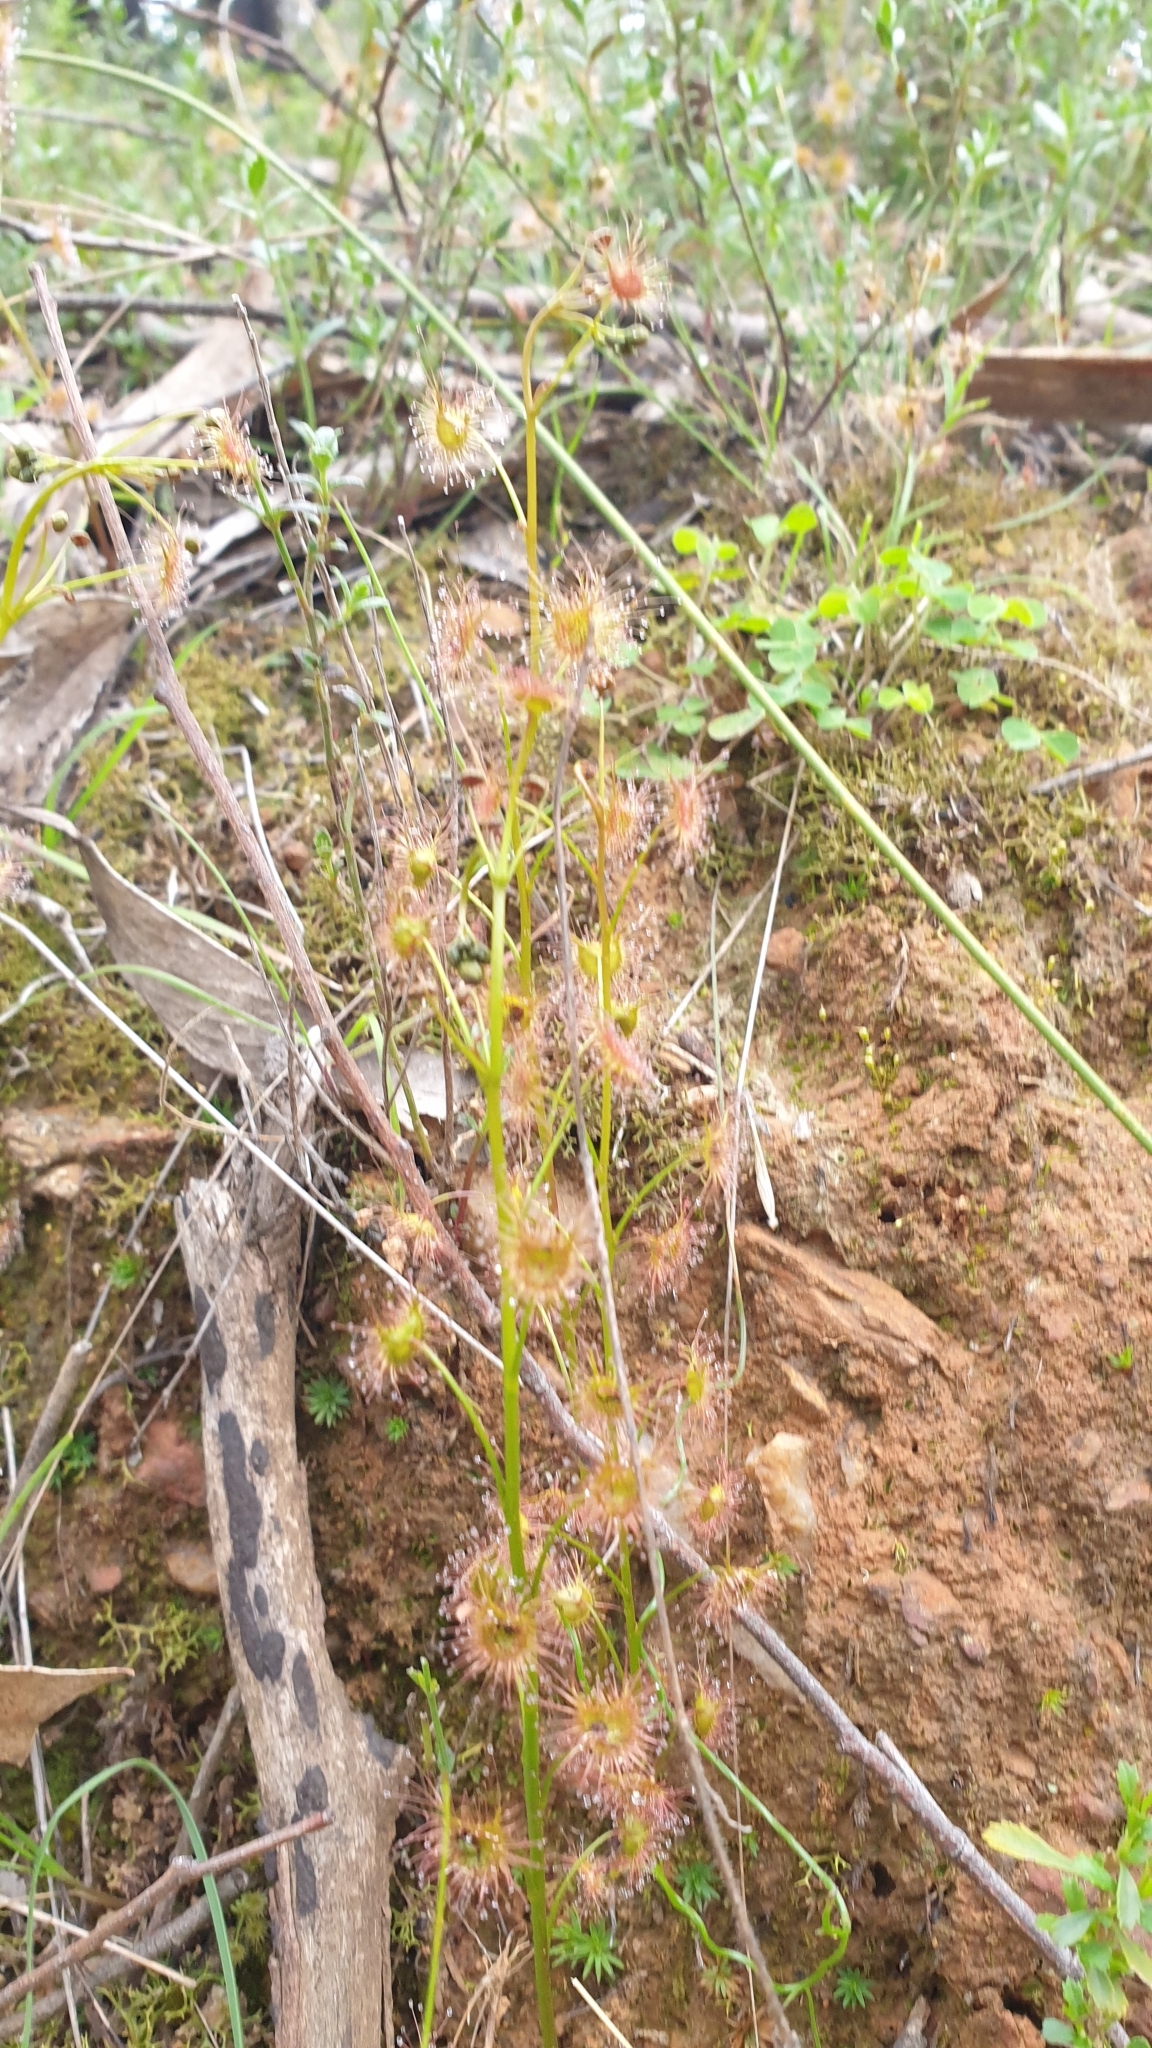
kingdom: Plantae
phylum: Tracheophyta
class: Magnoliopsida
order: Caryophyllales
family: Droseraceae
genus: Drosera
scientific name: Drosera peltata
